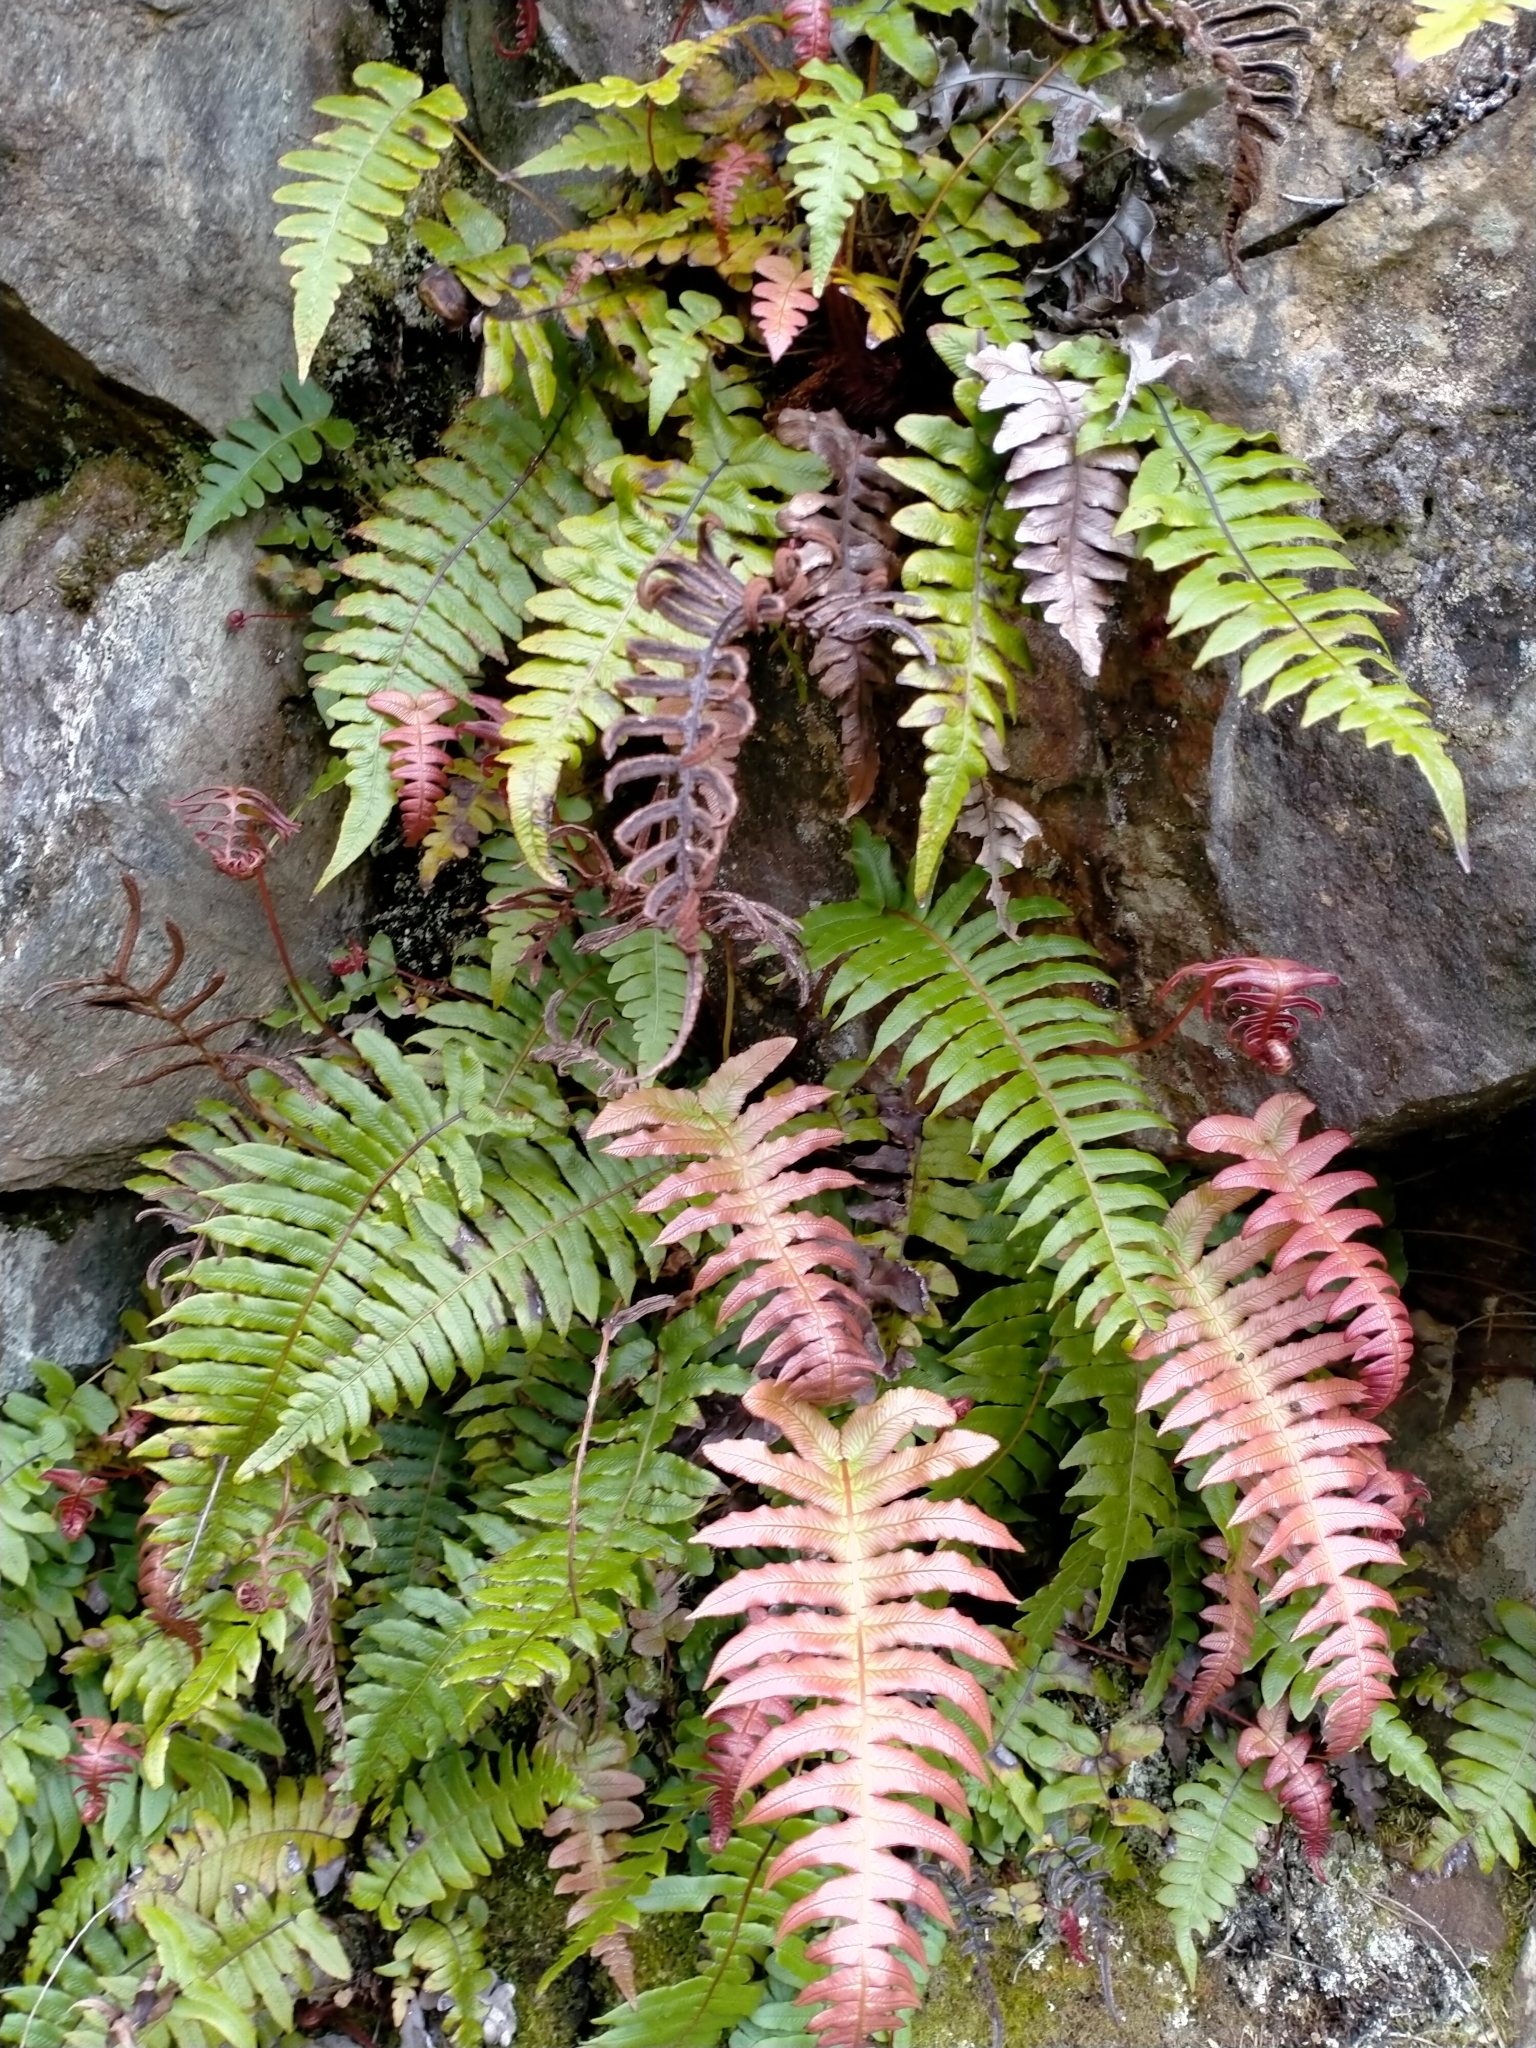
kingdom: Plantae
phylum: Tracheophyta
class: Polypodiopsida
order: Polypodiales
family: Blechnaceae
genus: Cranfillia
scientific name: Cranfillia deltoides
